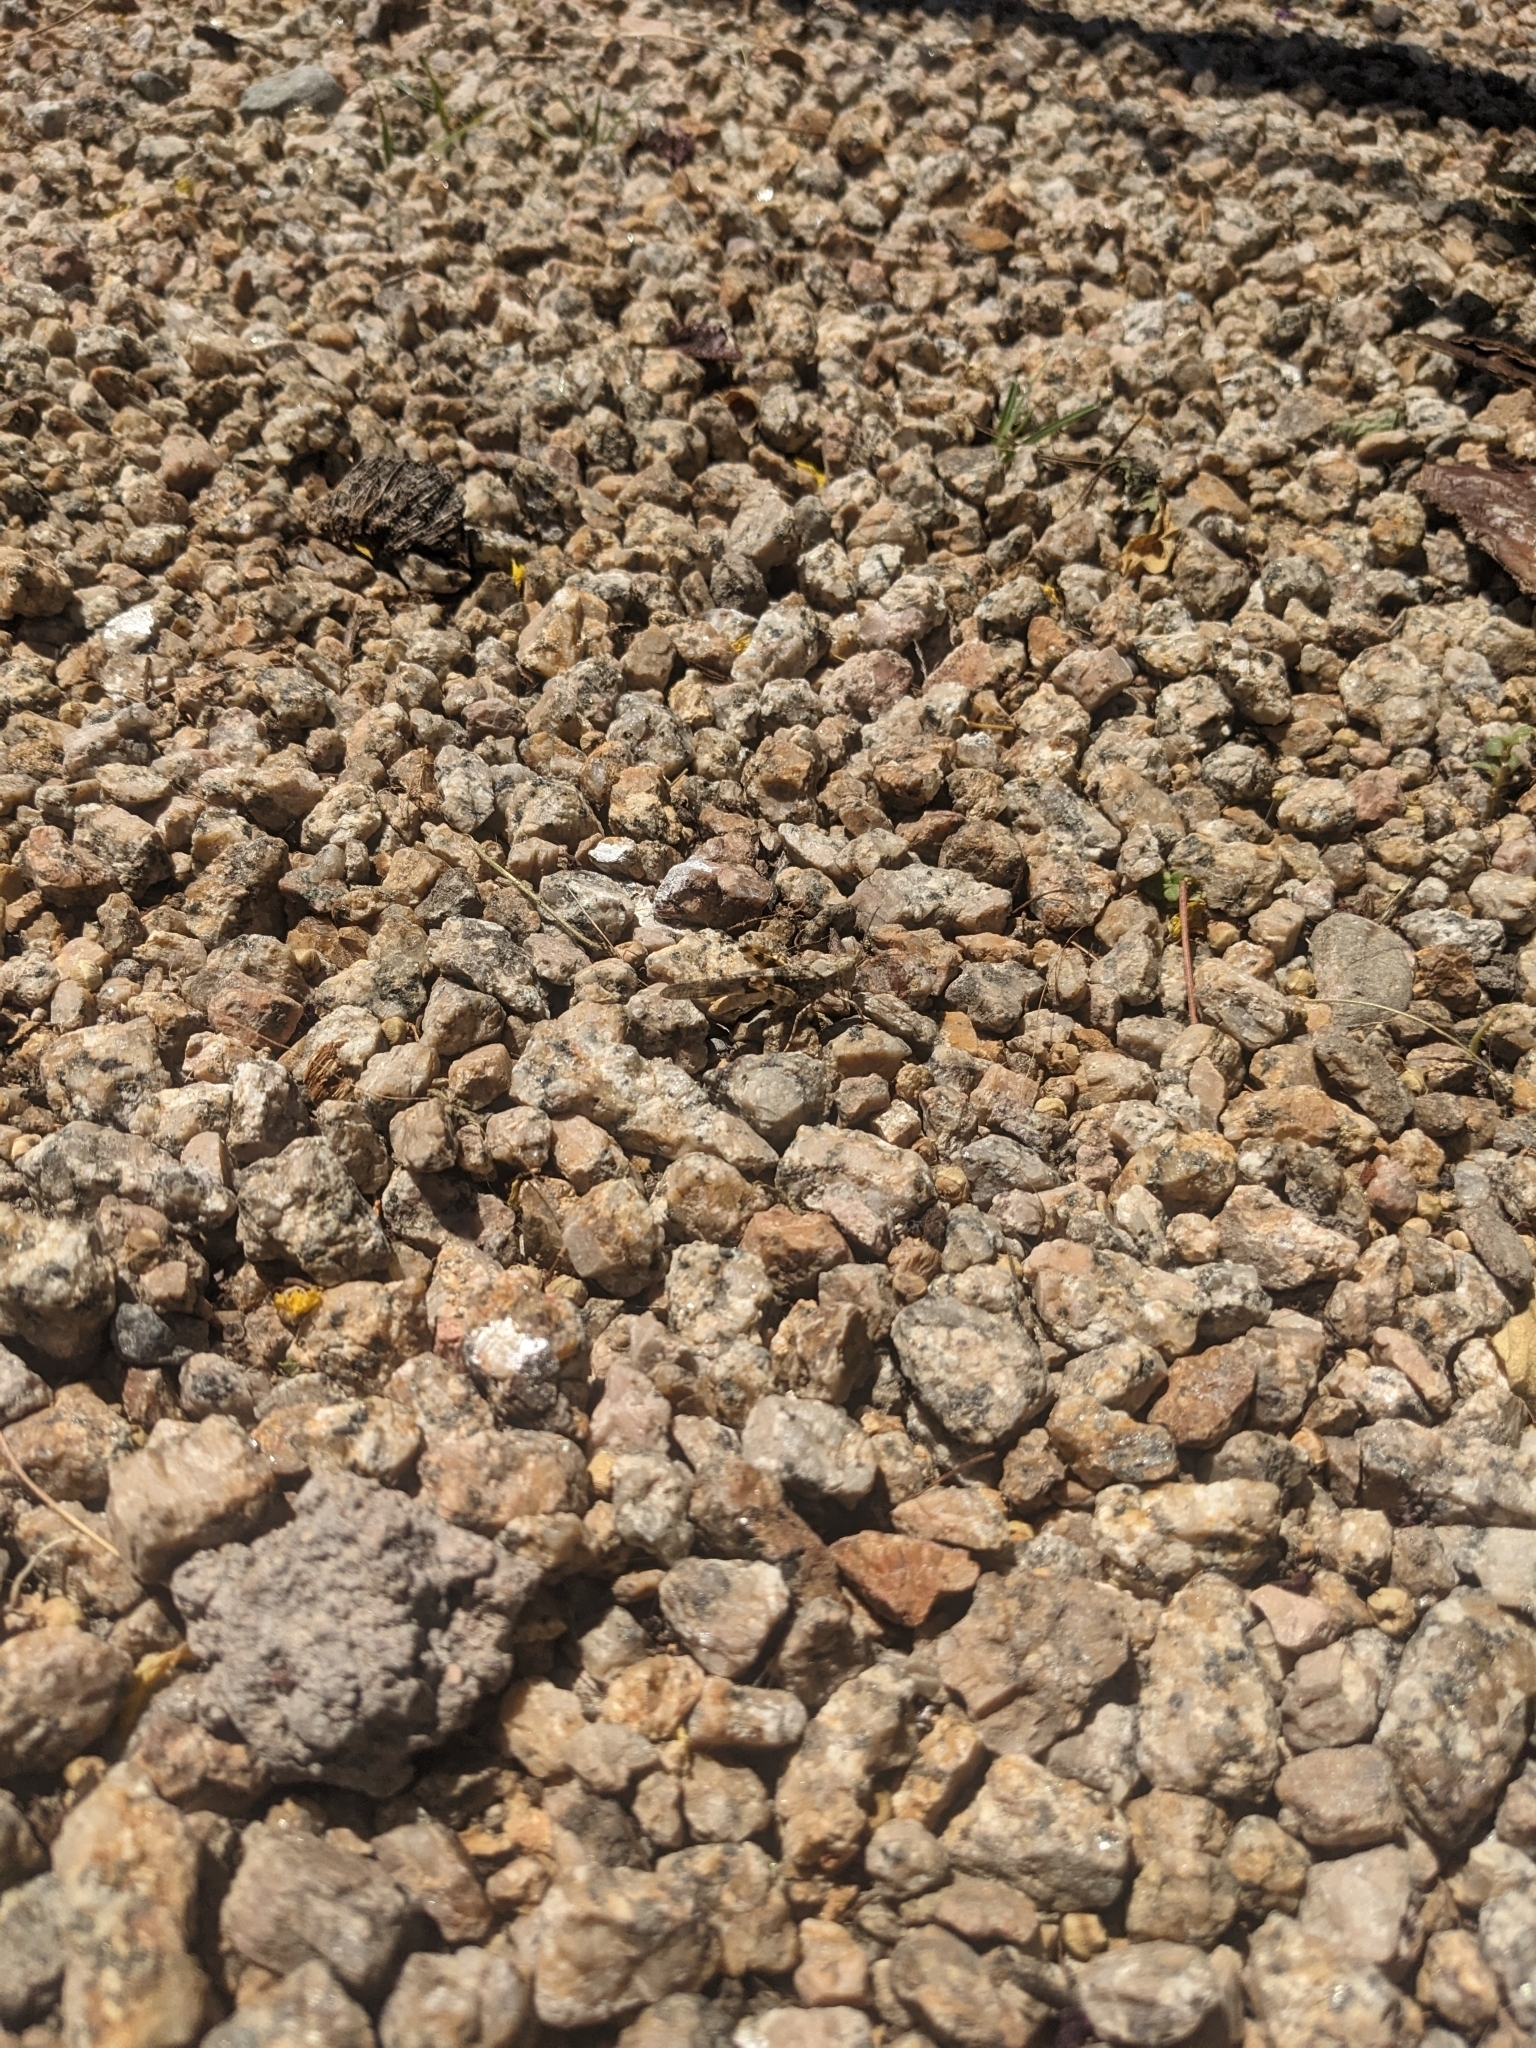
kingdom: Animalia
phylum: Arthropoda
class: Insecta
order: Orthoptera
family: Acrididae
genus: Trimerotropis
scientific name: Trimerotropis pallidipennis
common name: Pallid-winged grasshopper
